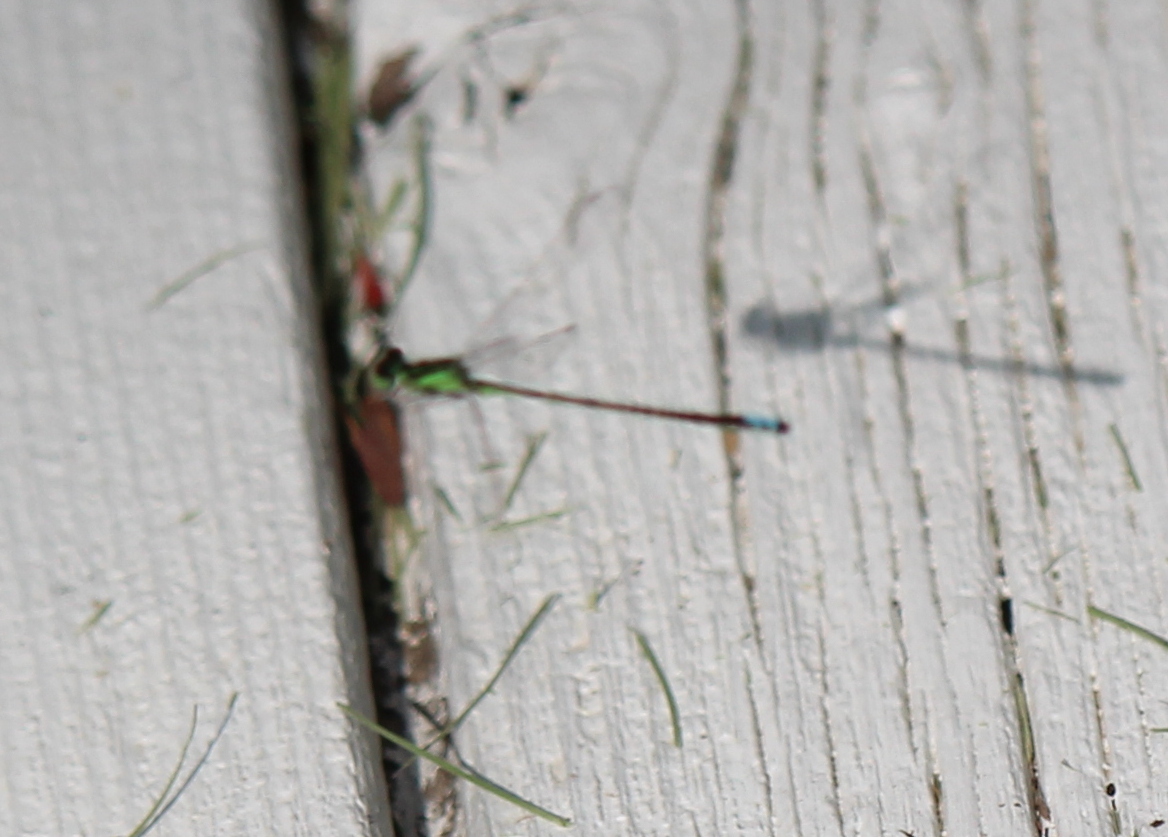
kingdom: Animalia
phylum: Arthropoda
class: Insecta
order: Odonata
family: Coenagrionidae
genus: Ischnura
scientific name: Ischnura verticalis
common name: Eastern forktail
